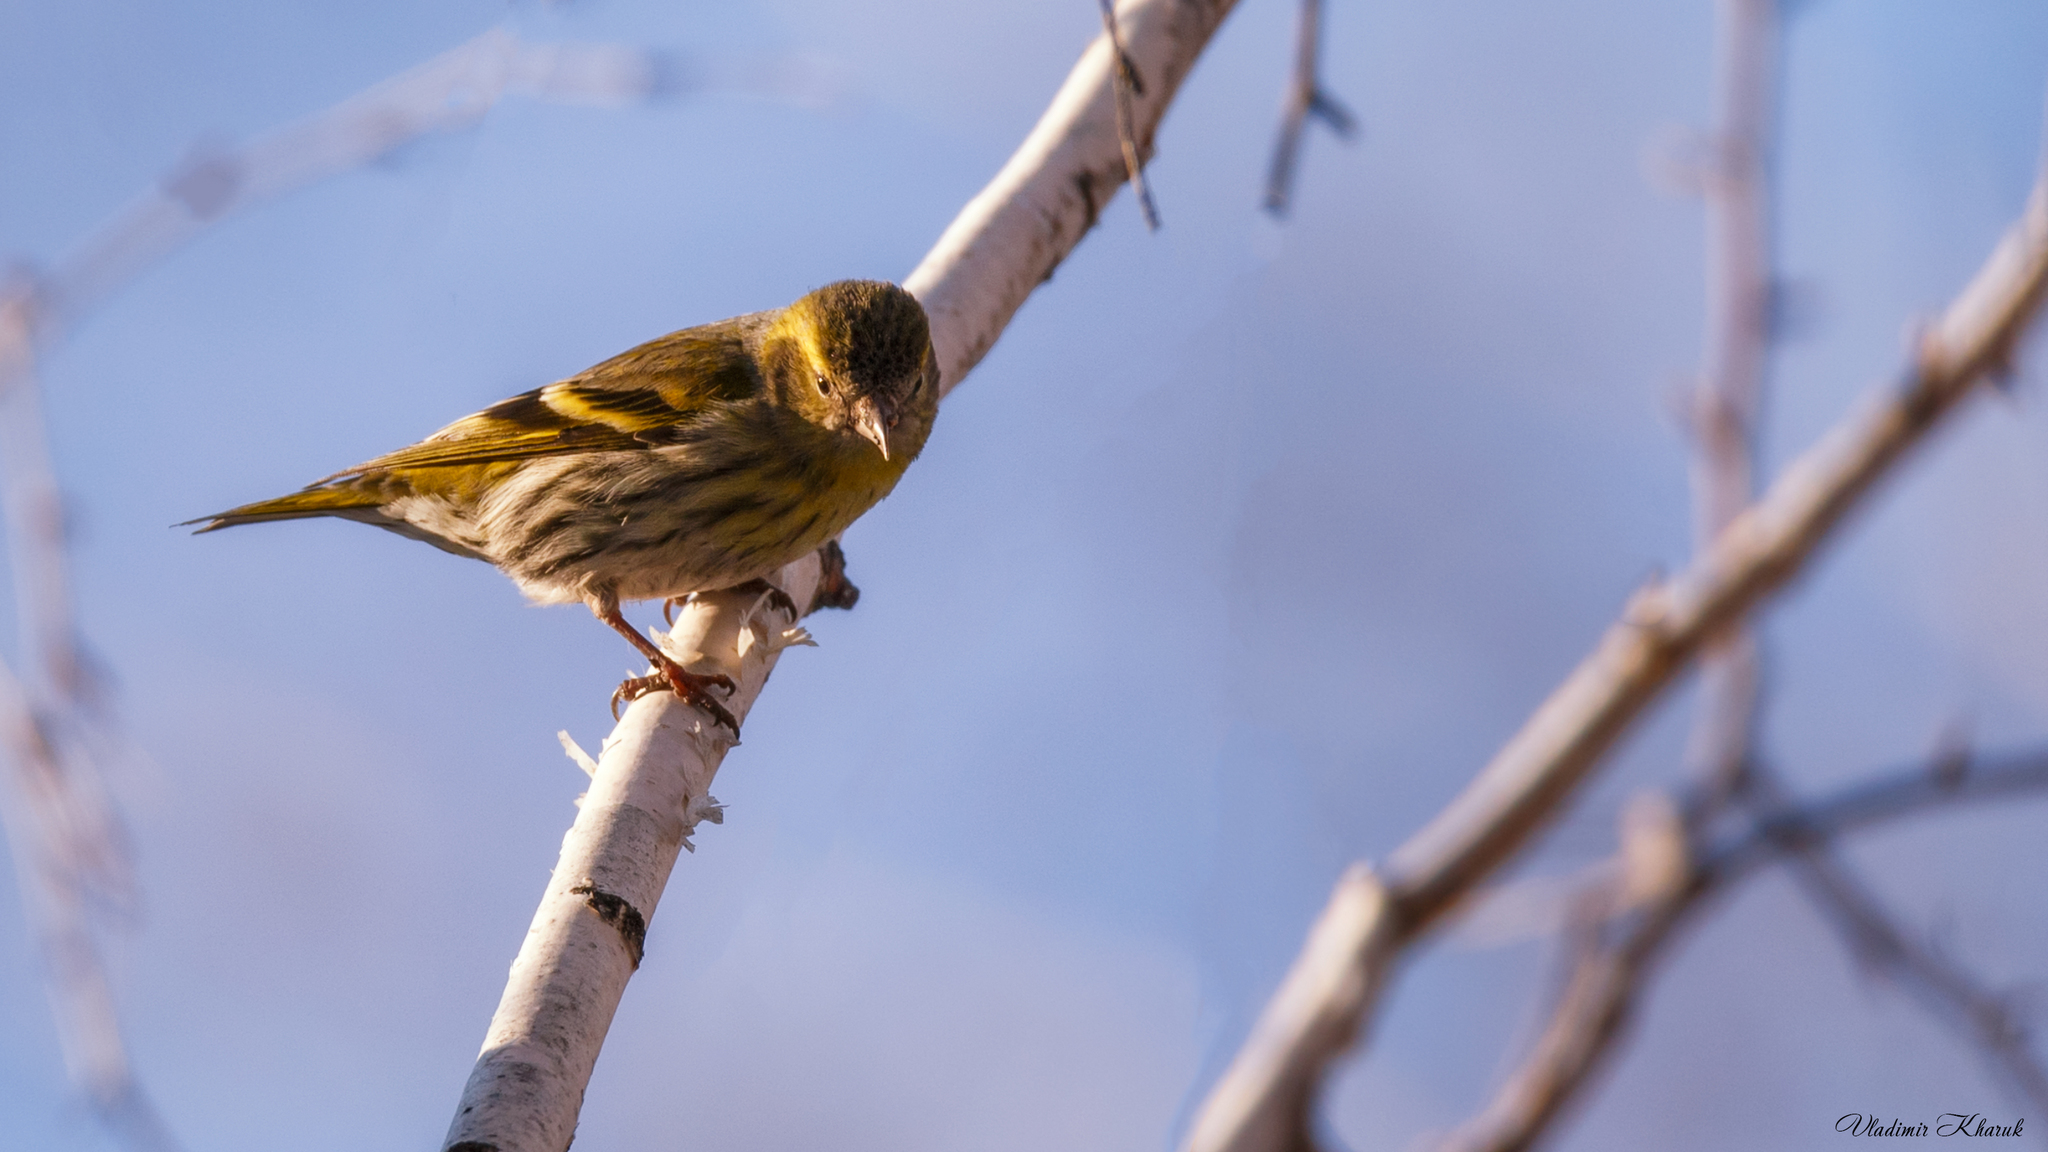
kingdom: Animalia
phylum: Chordata
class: Aves
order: Passeriformes
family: Fringillidae
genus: Spinus
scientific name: Spinus spinus
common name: Eurasian siskin
